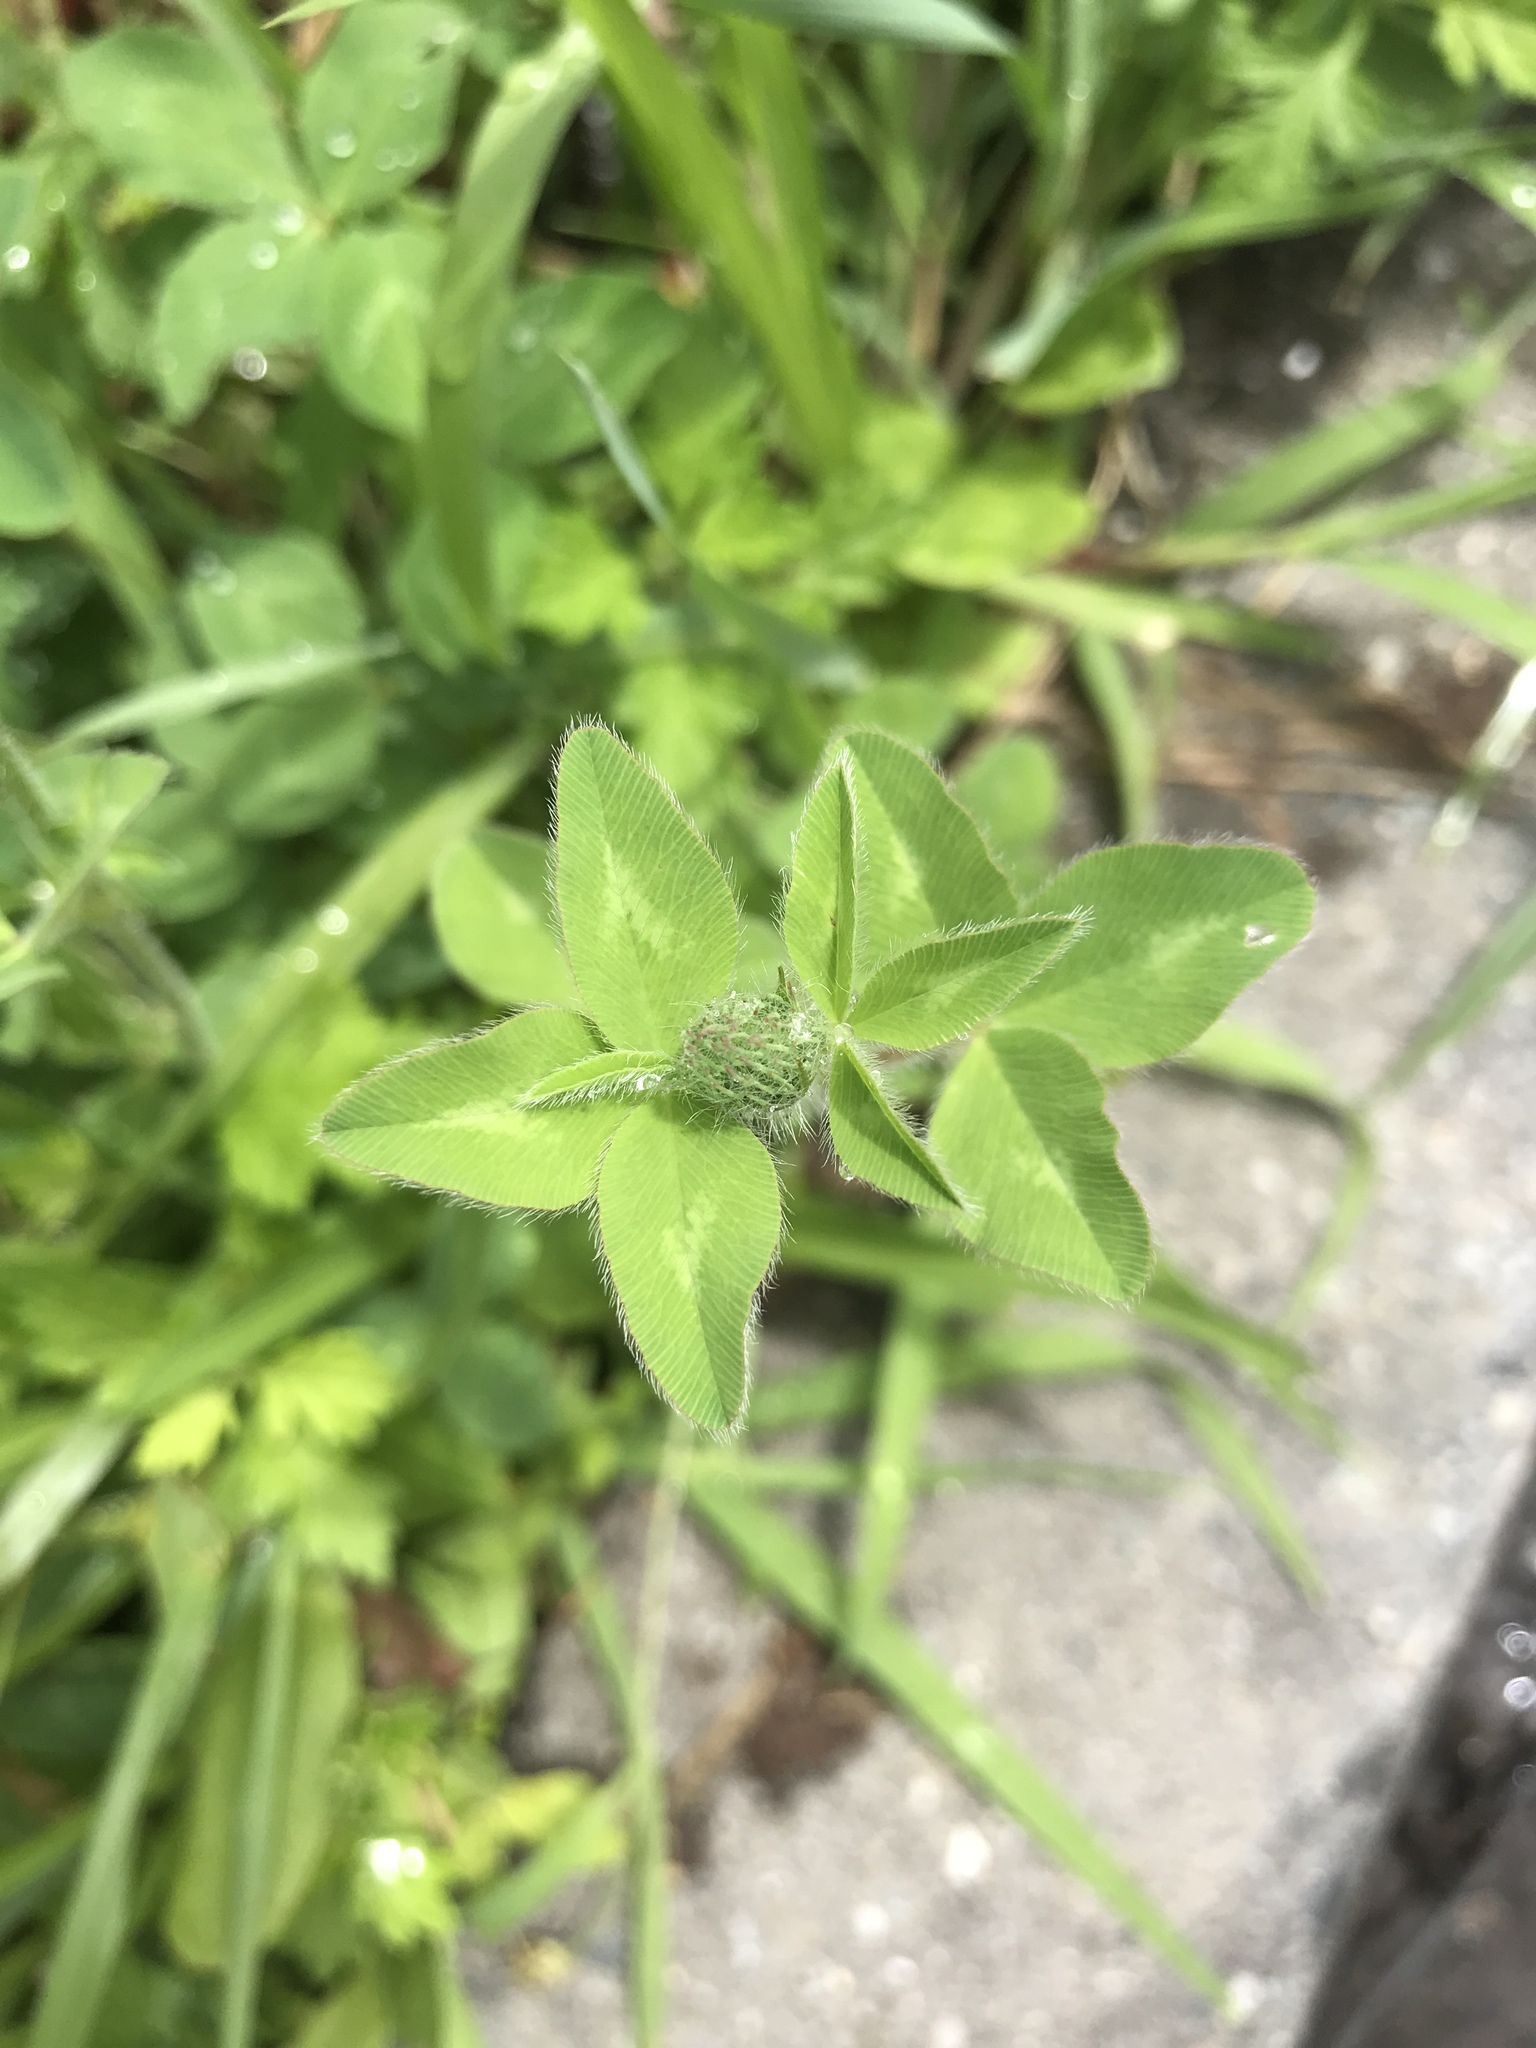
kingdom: Plantae
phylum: Tracheophyta
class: Magnoliopsida
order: Fabales
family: Fabaceae
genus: Trifolium
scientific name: Trifolium pratense
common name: Red clover
